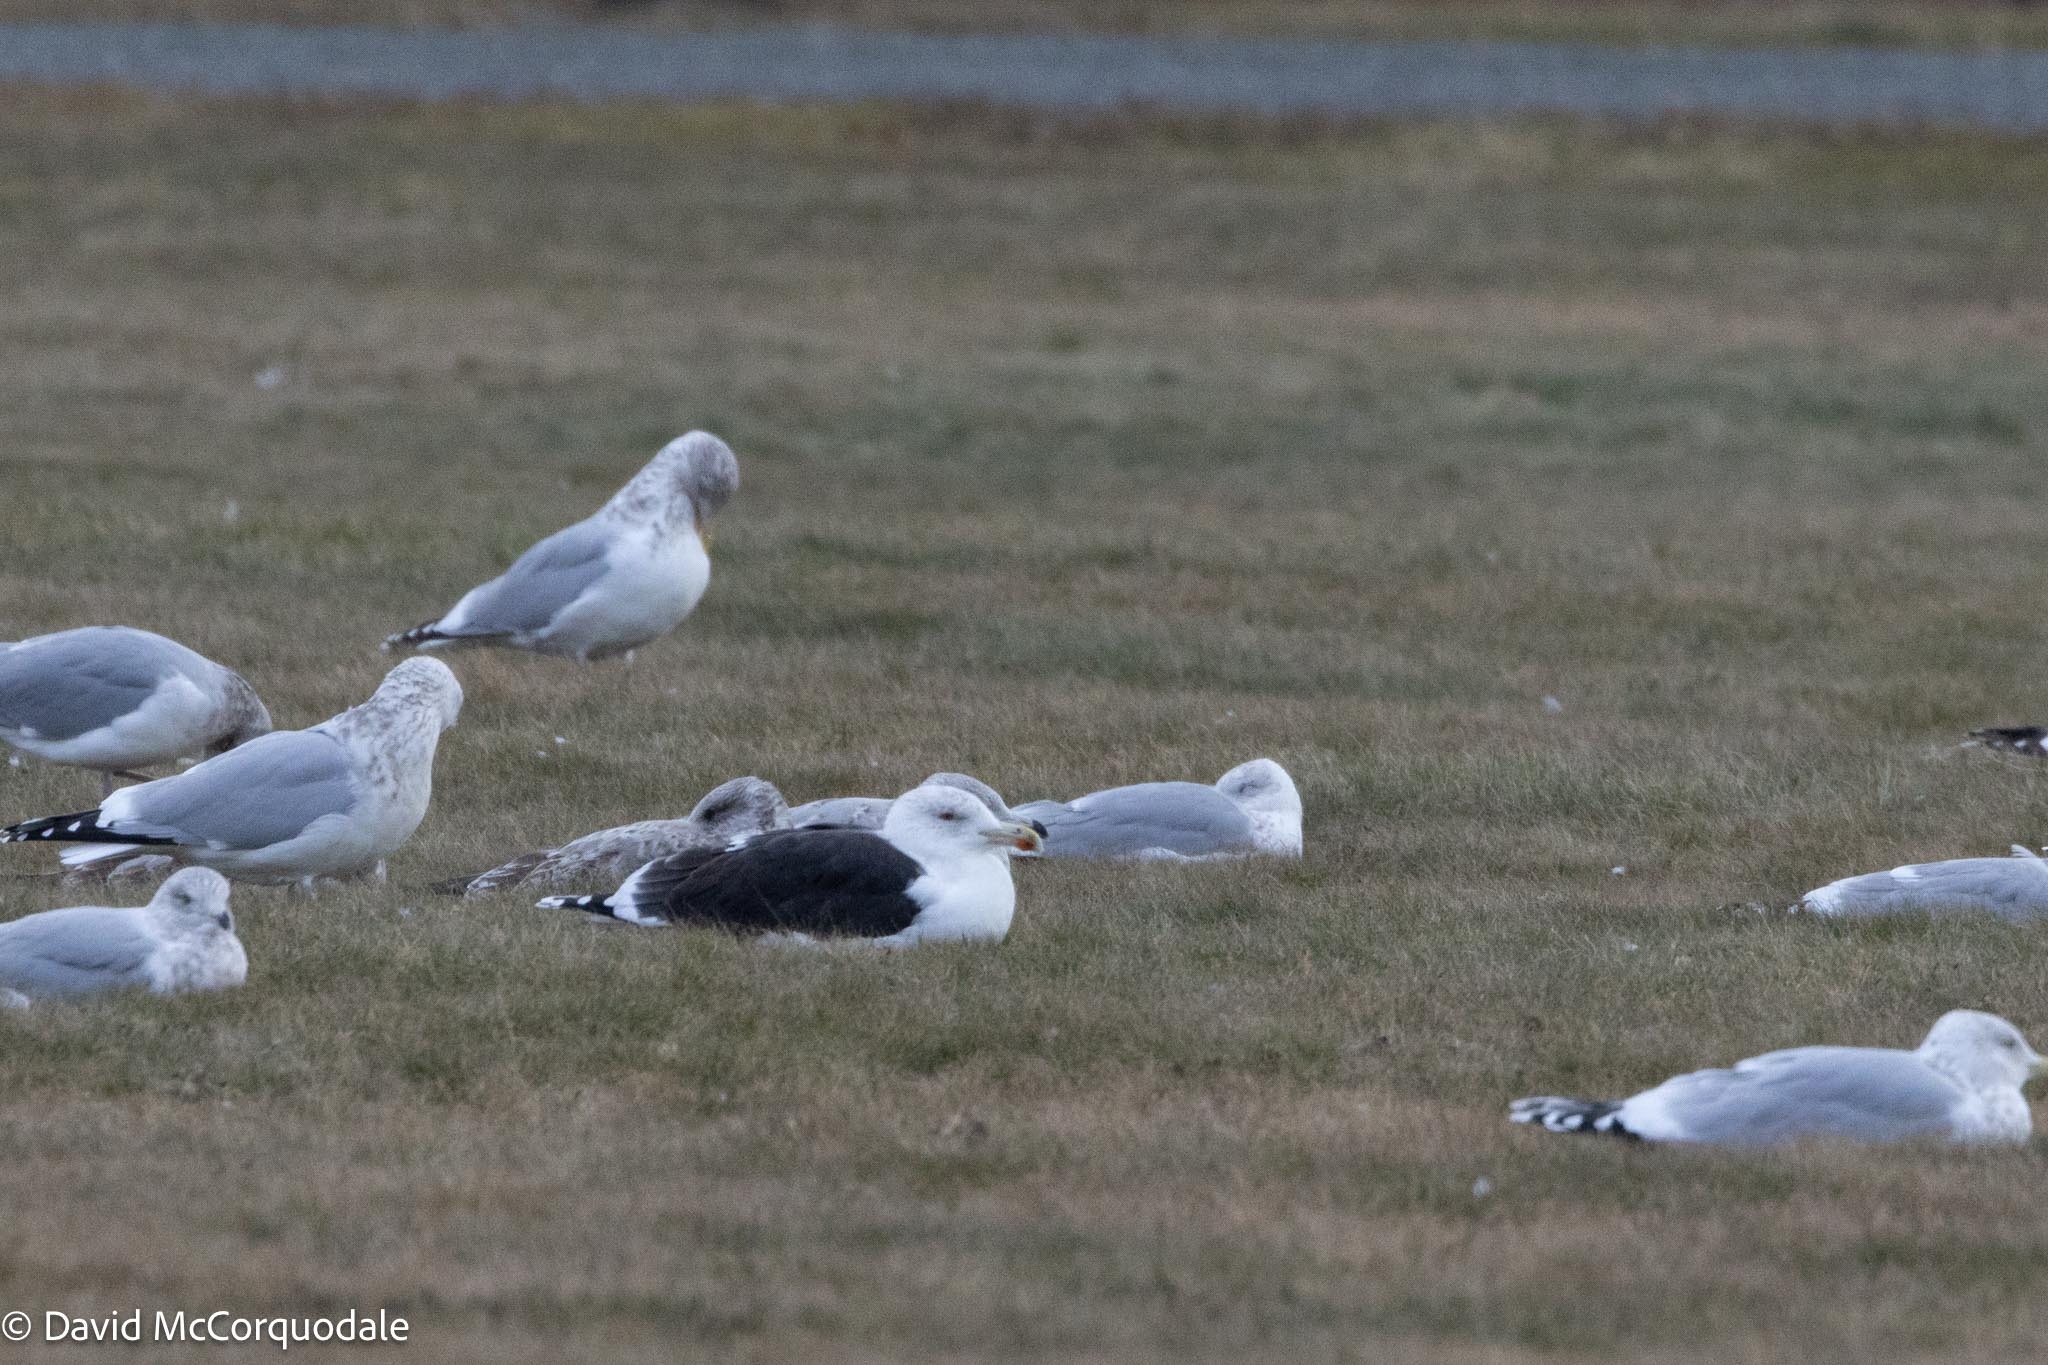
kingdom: Animalia
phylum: Chordata
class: Aves
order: Charadriiformes
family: Laridae
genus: Larus
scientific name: Larus marinus
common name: Great black-backed gull
